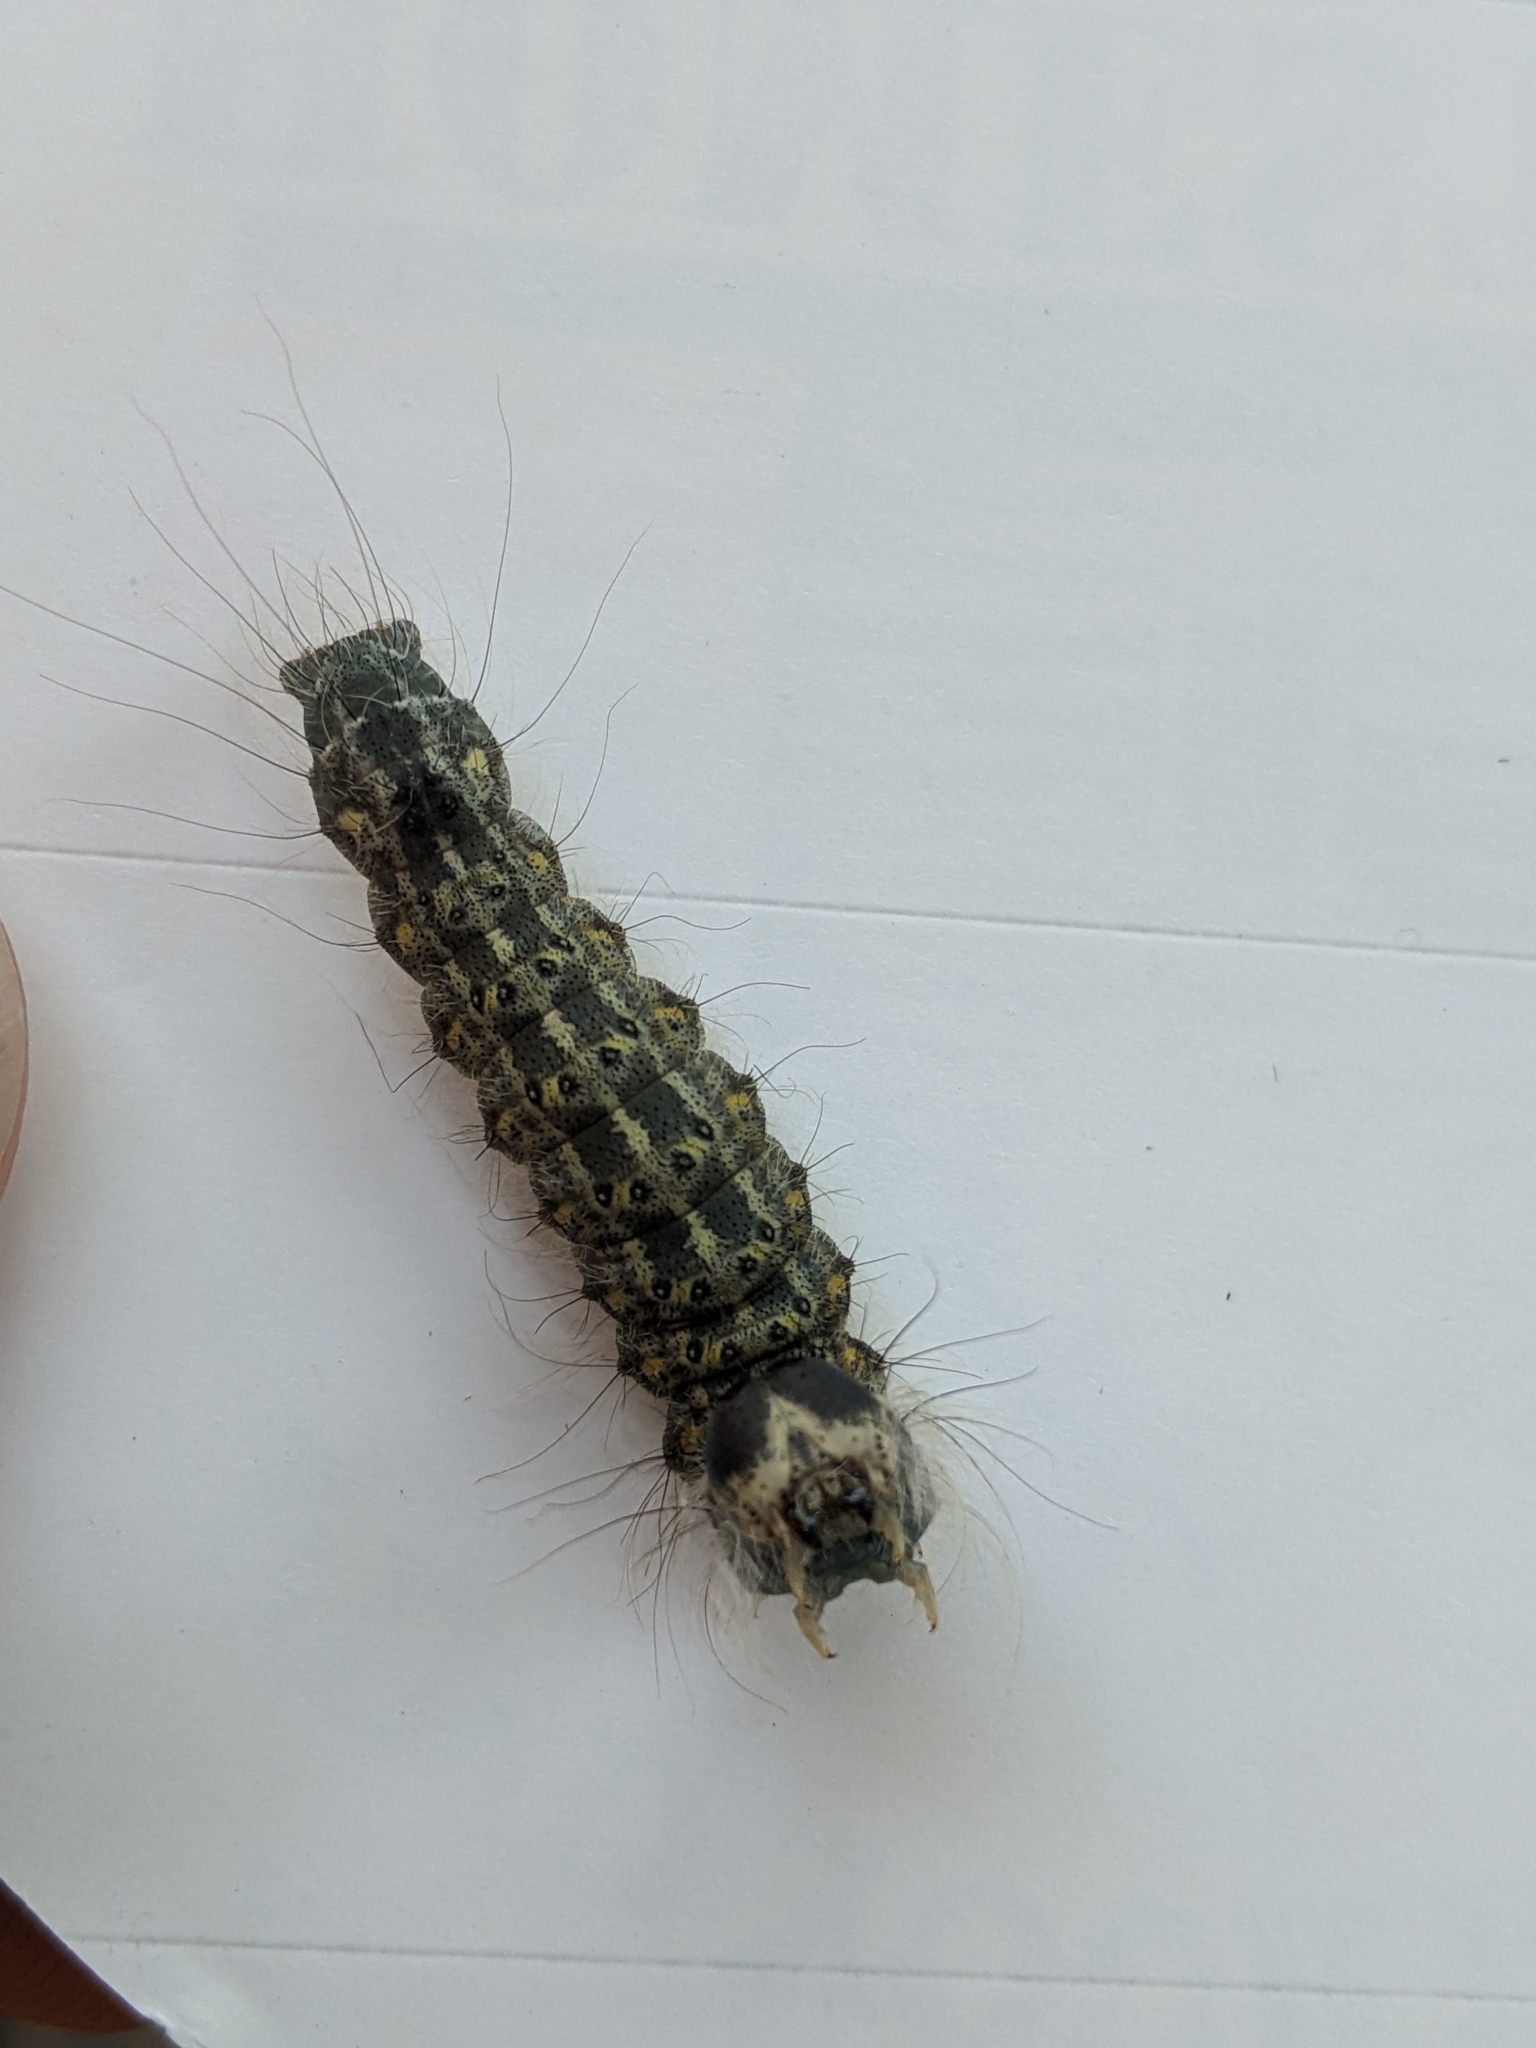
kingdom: Animalia
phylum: Arthropoda
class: Insecta
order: Lepidoptera
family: Noctuidae
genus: Acronicta
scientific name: Acronicta lobeliae
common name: Greater oak dagger
